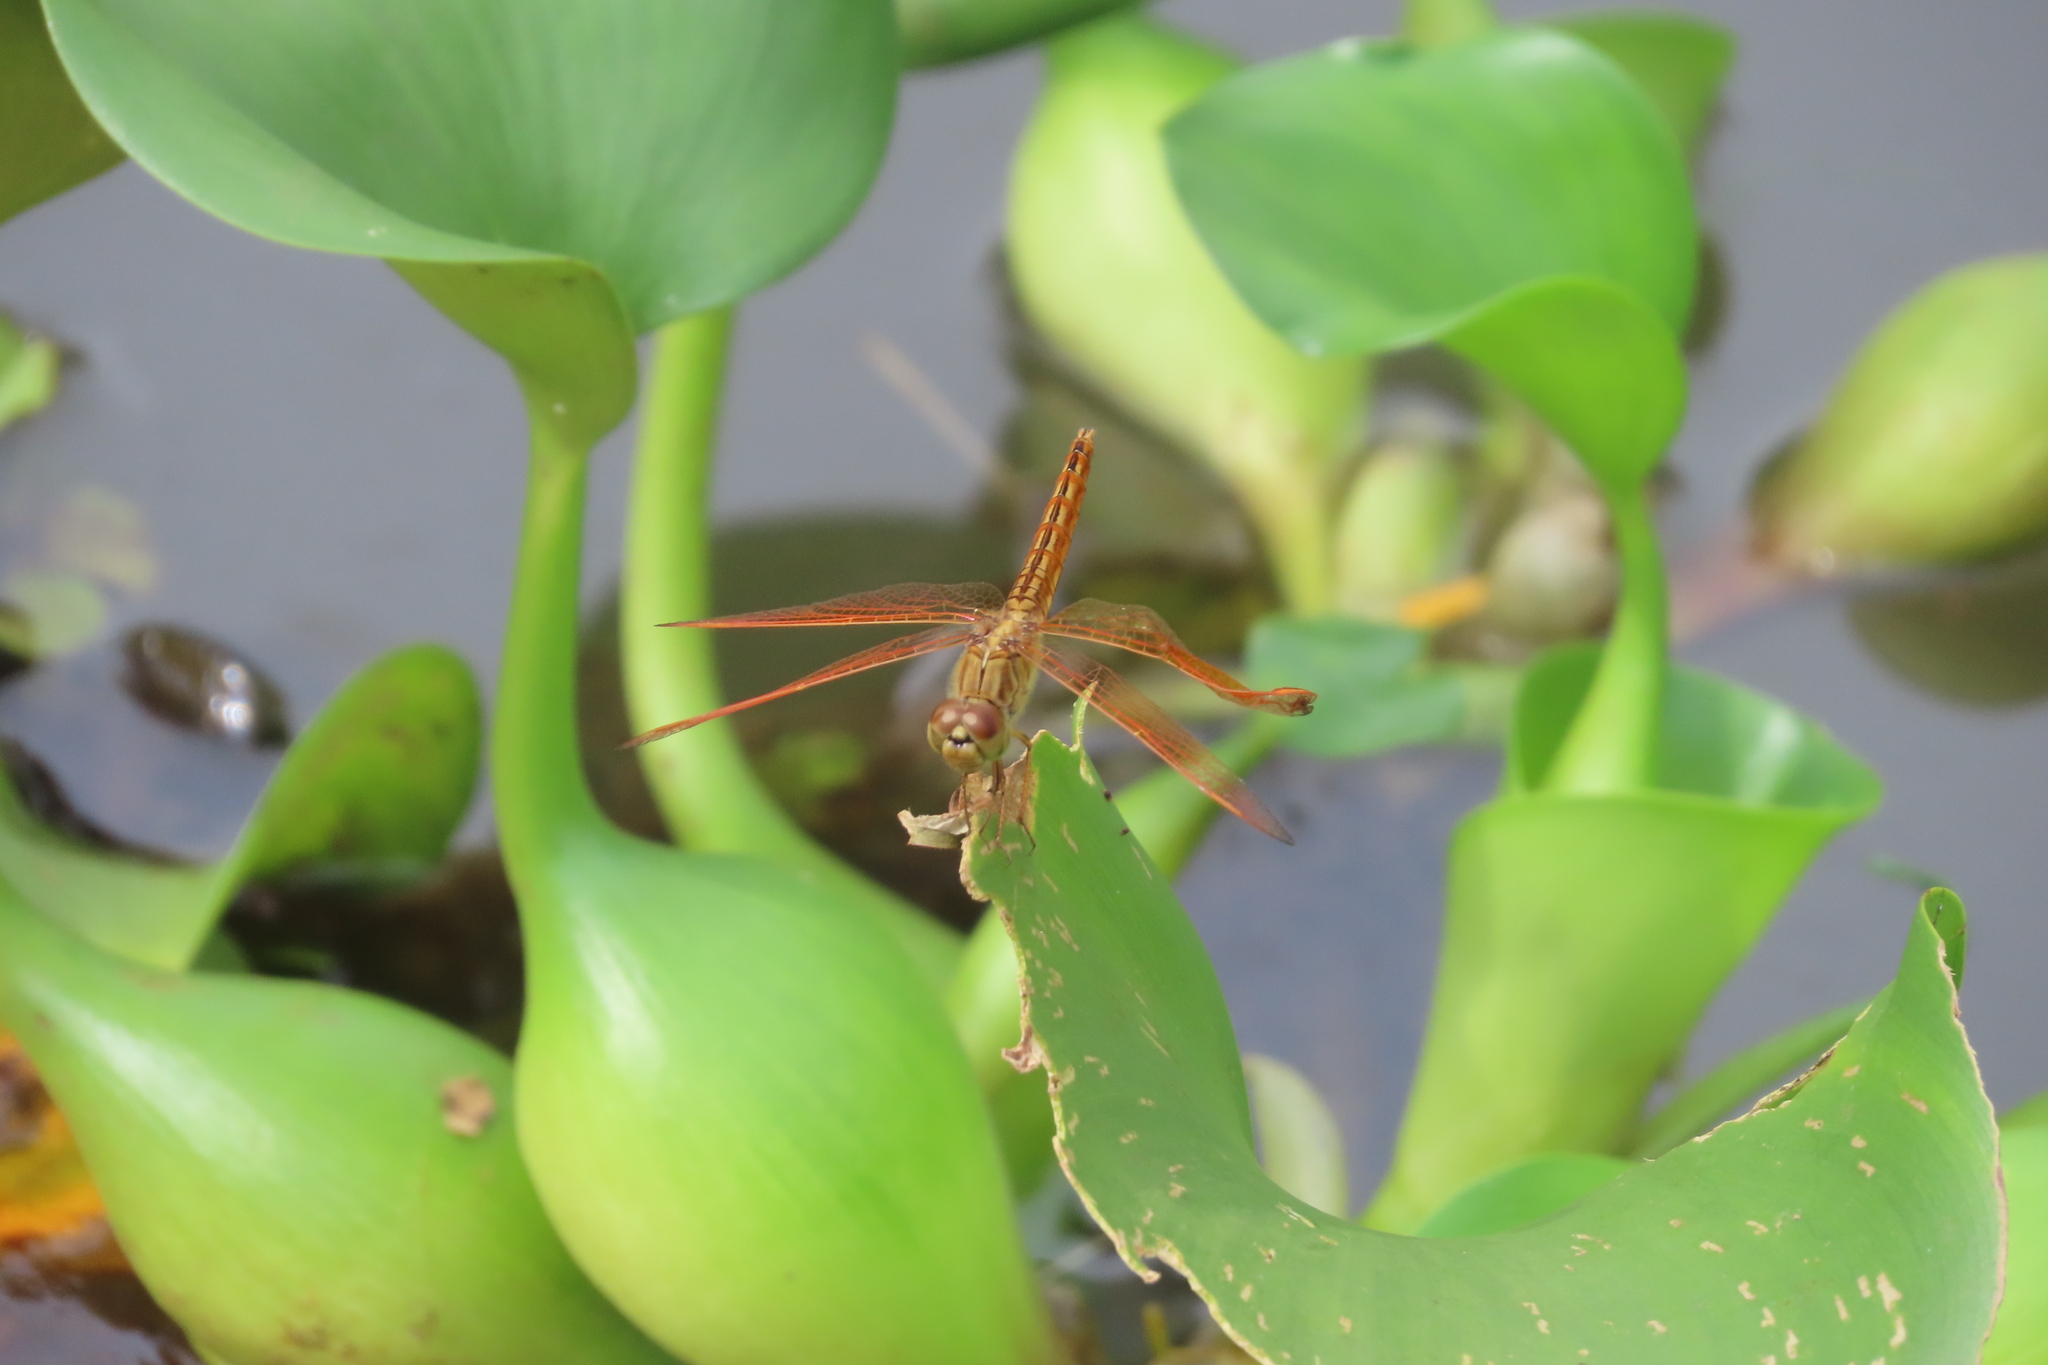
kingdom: Animalia
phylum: Arthropoda
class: Insecta
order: Odonata
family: Libellulidae
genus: Brachythemis
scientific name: Brachythemis contaminata
